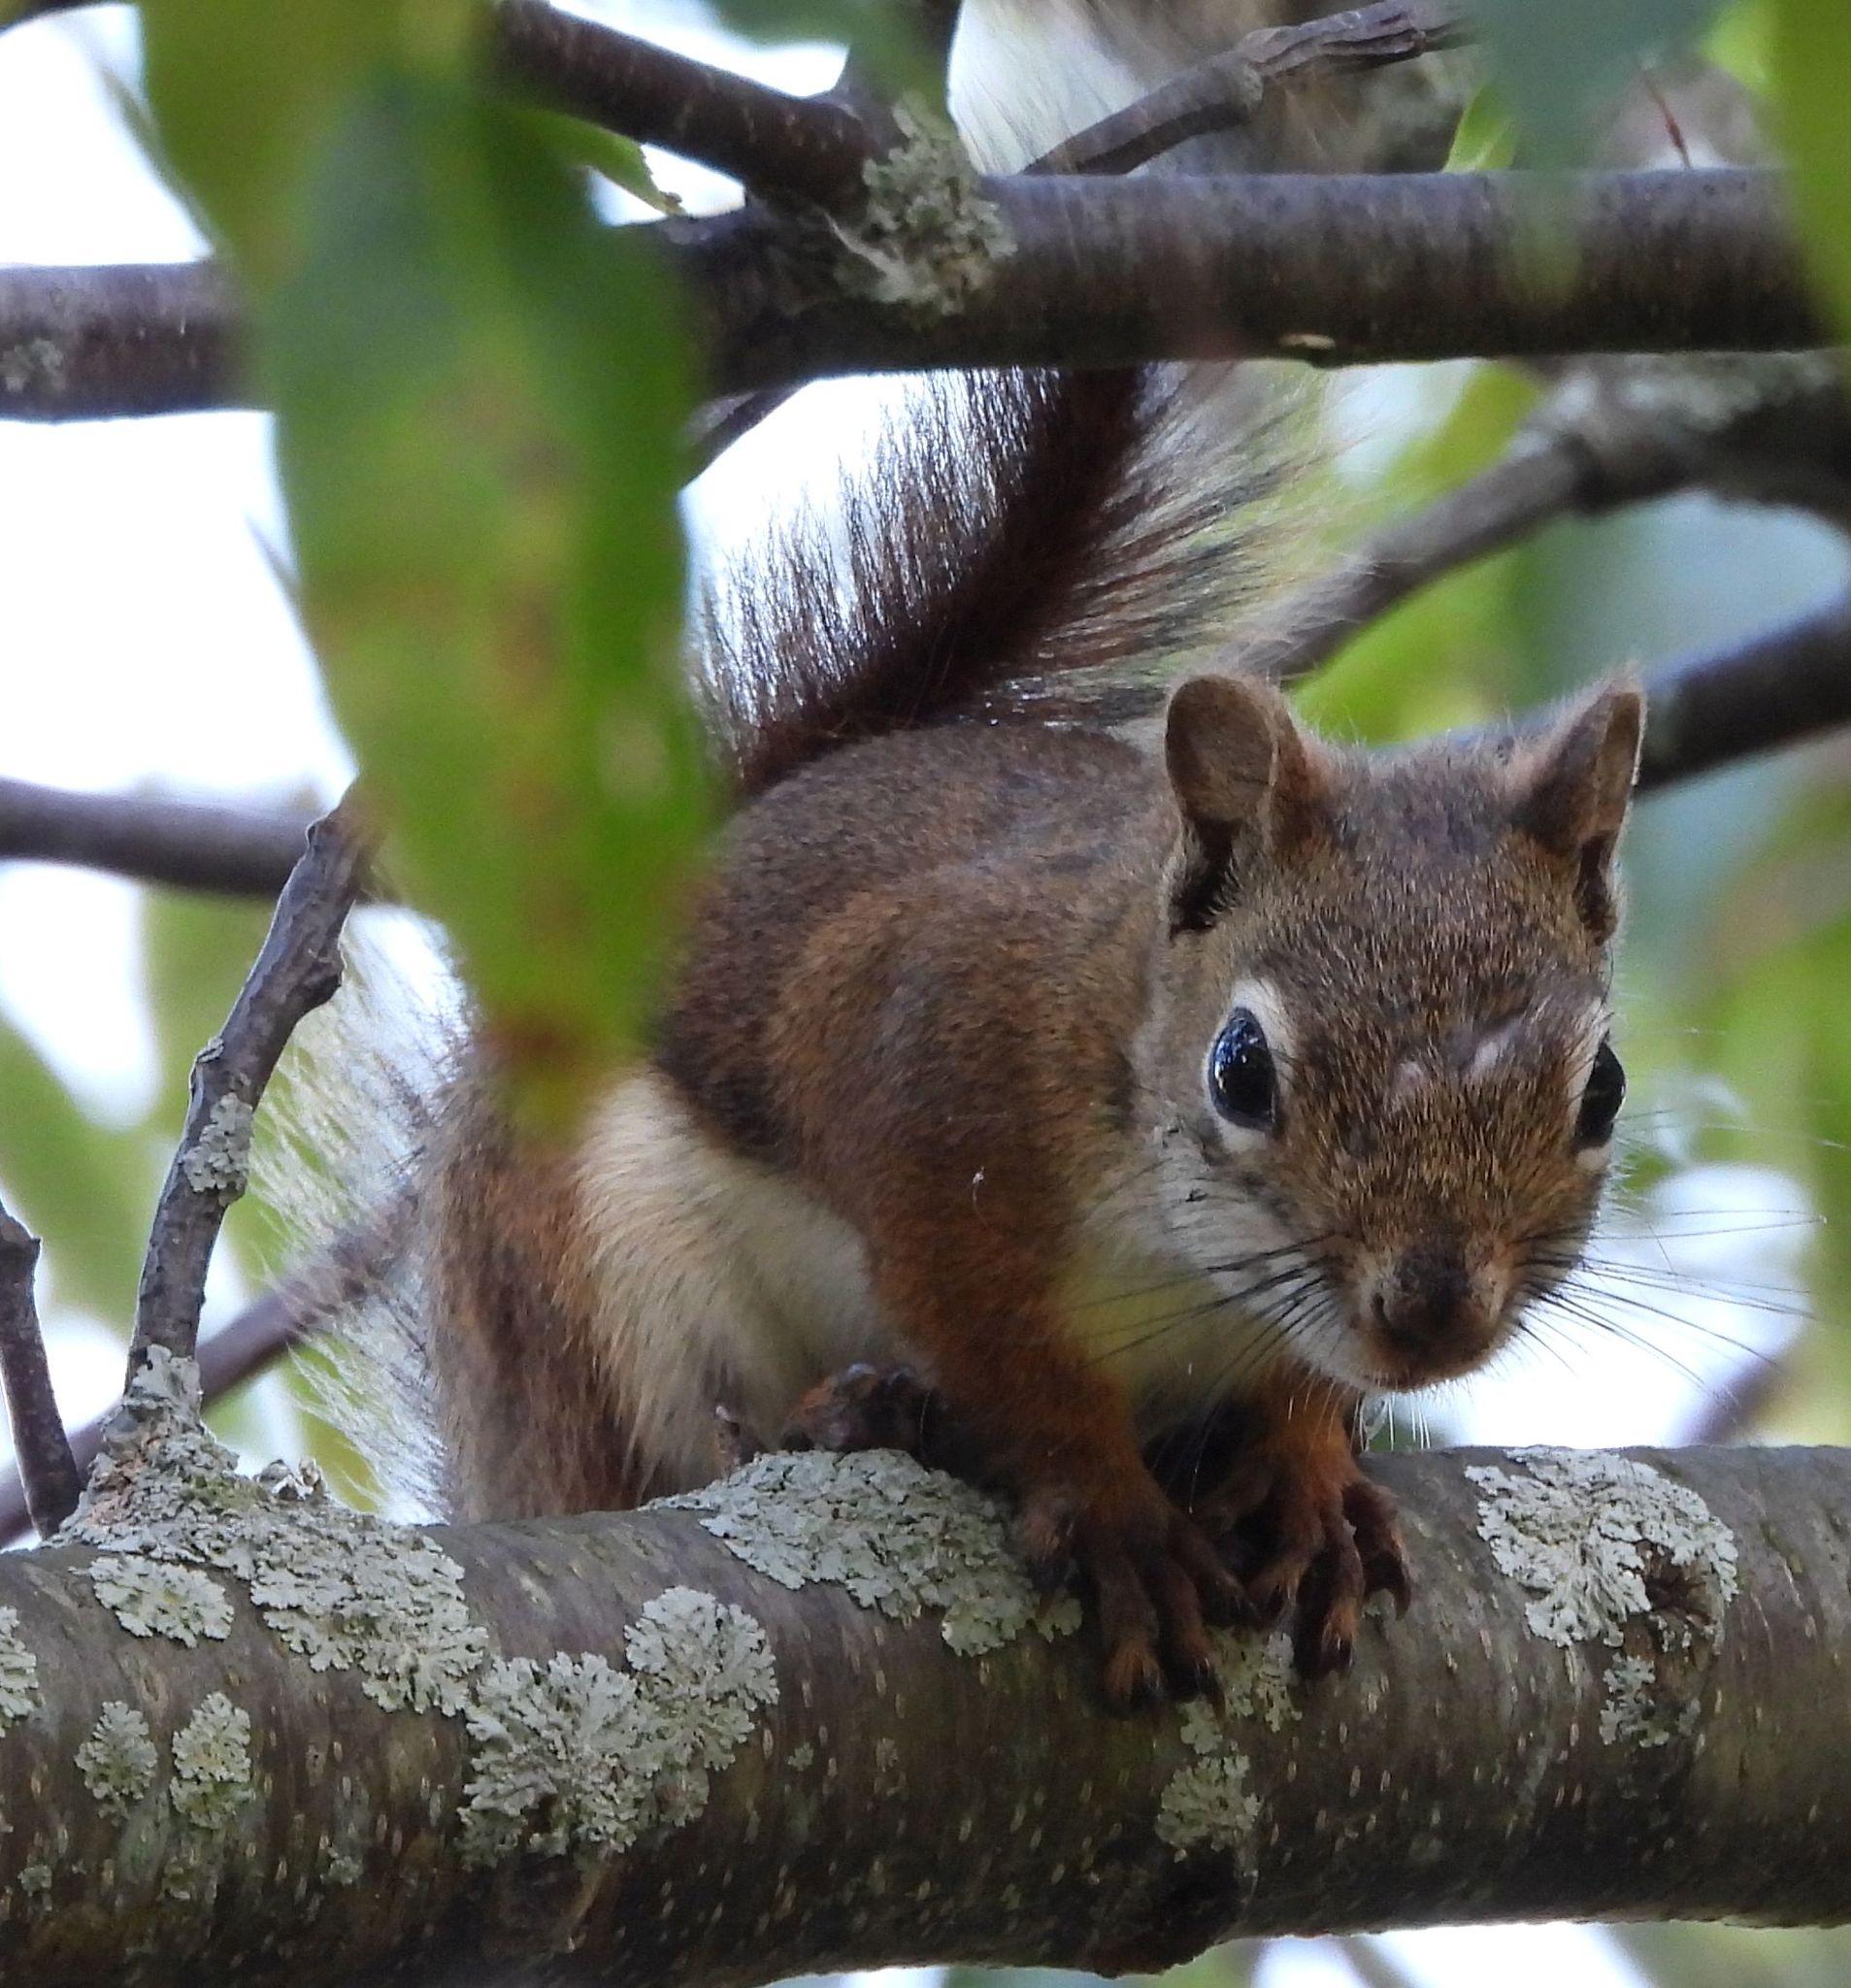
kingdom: Animalia
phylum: Chordata
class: Mammalia
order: Rodentia
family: Sciuridae
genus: Tamiasciurus
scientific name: Tamiasciurus hudsonicus
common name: Red squirrel
